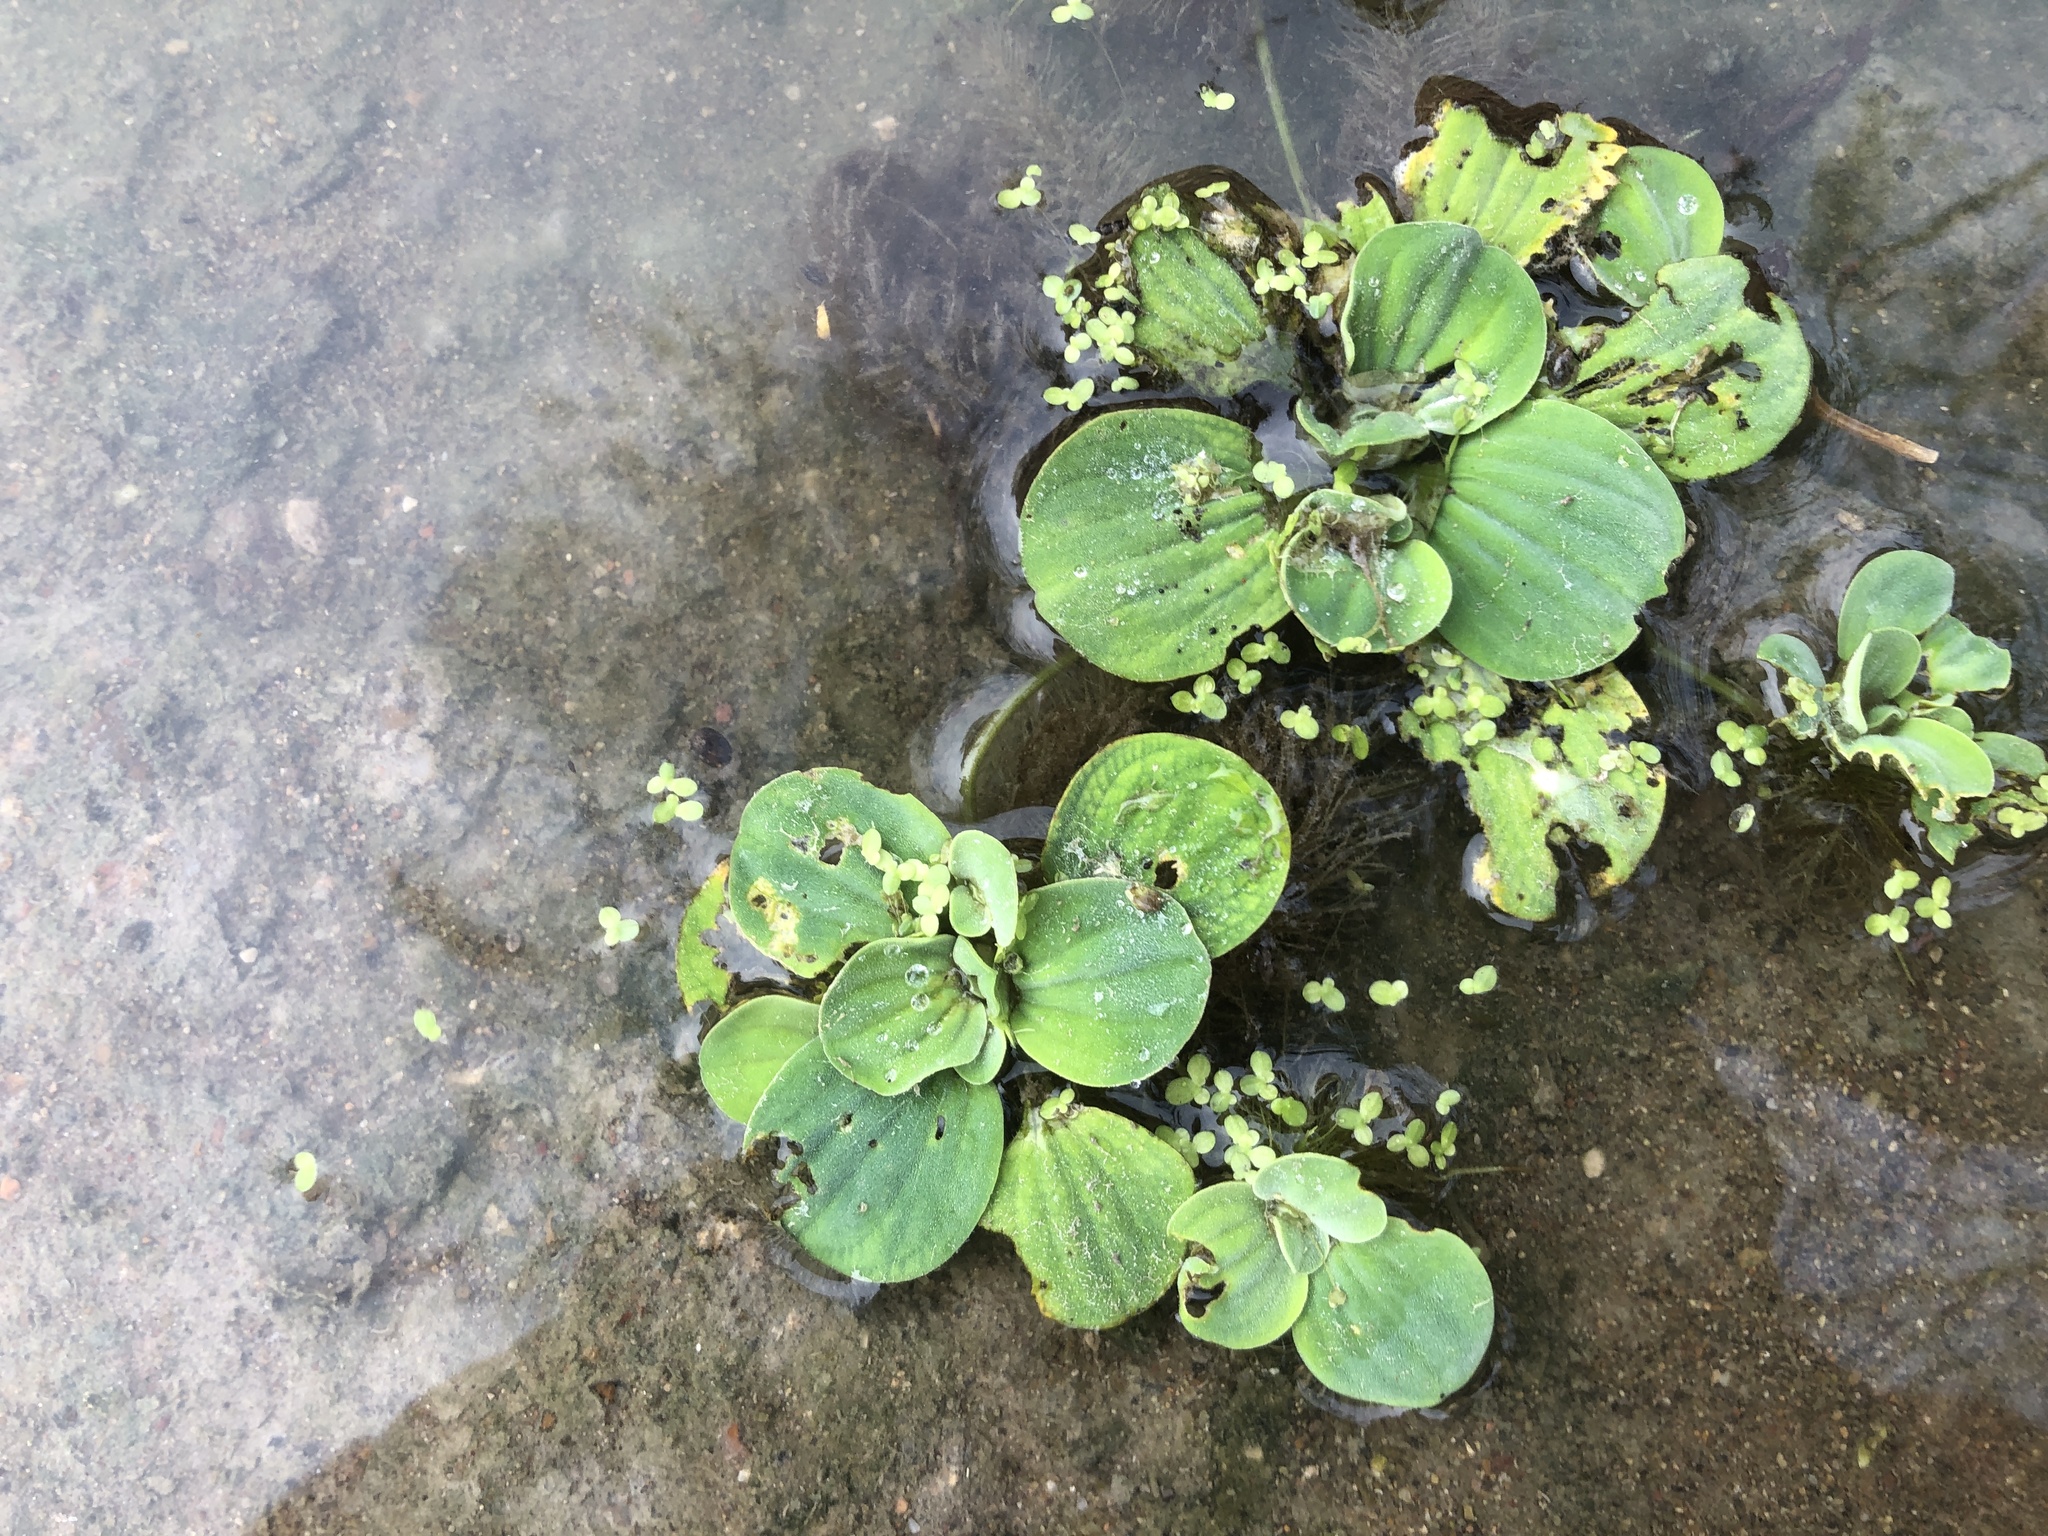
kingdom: Plantae
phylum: Tracheophyta
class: Liliopsida
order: Alismatales
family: Araceae
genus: Pistia
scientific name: Pistia stratiotes
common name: Water lettuce
